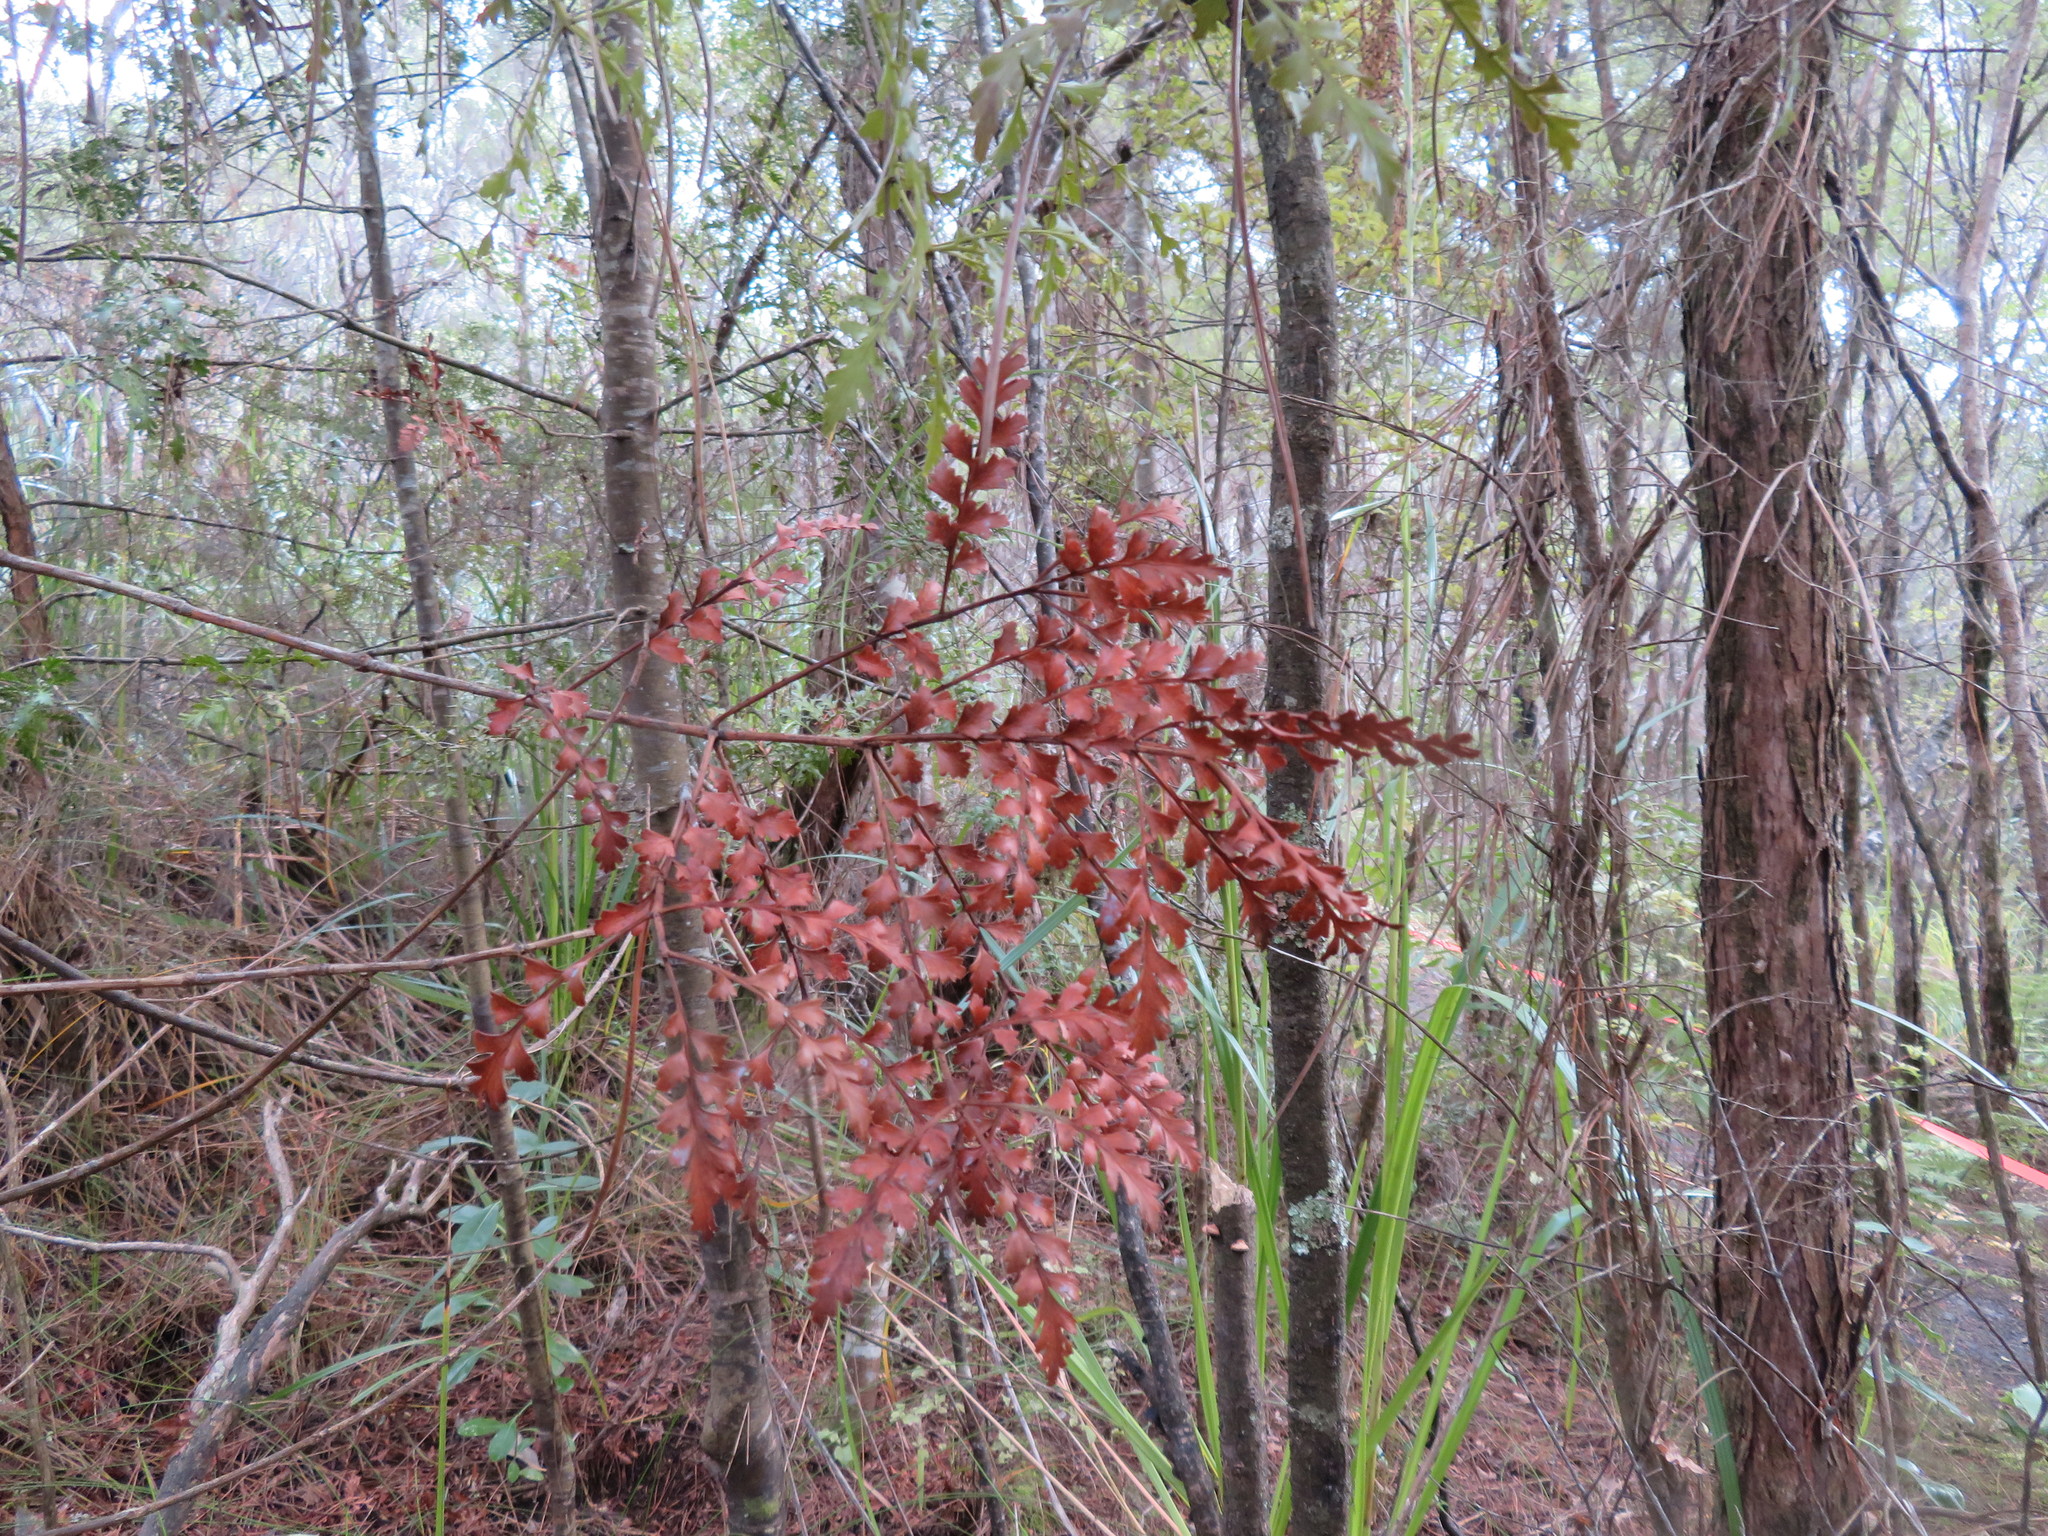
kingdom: Plantae
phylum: Tracheophyta
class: Pinopsida
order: Pinales
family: Phyllocladaceae
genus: Phyllocladus
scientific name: Phyllocladus trichomanoides
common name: Celery pine
